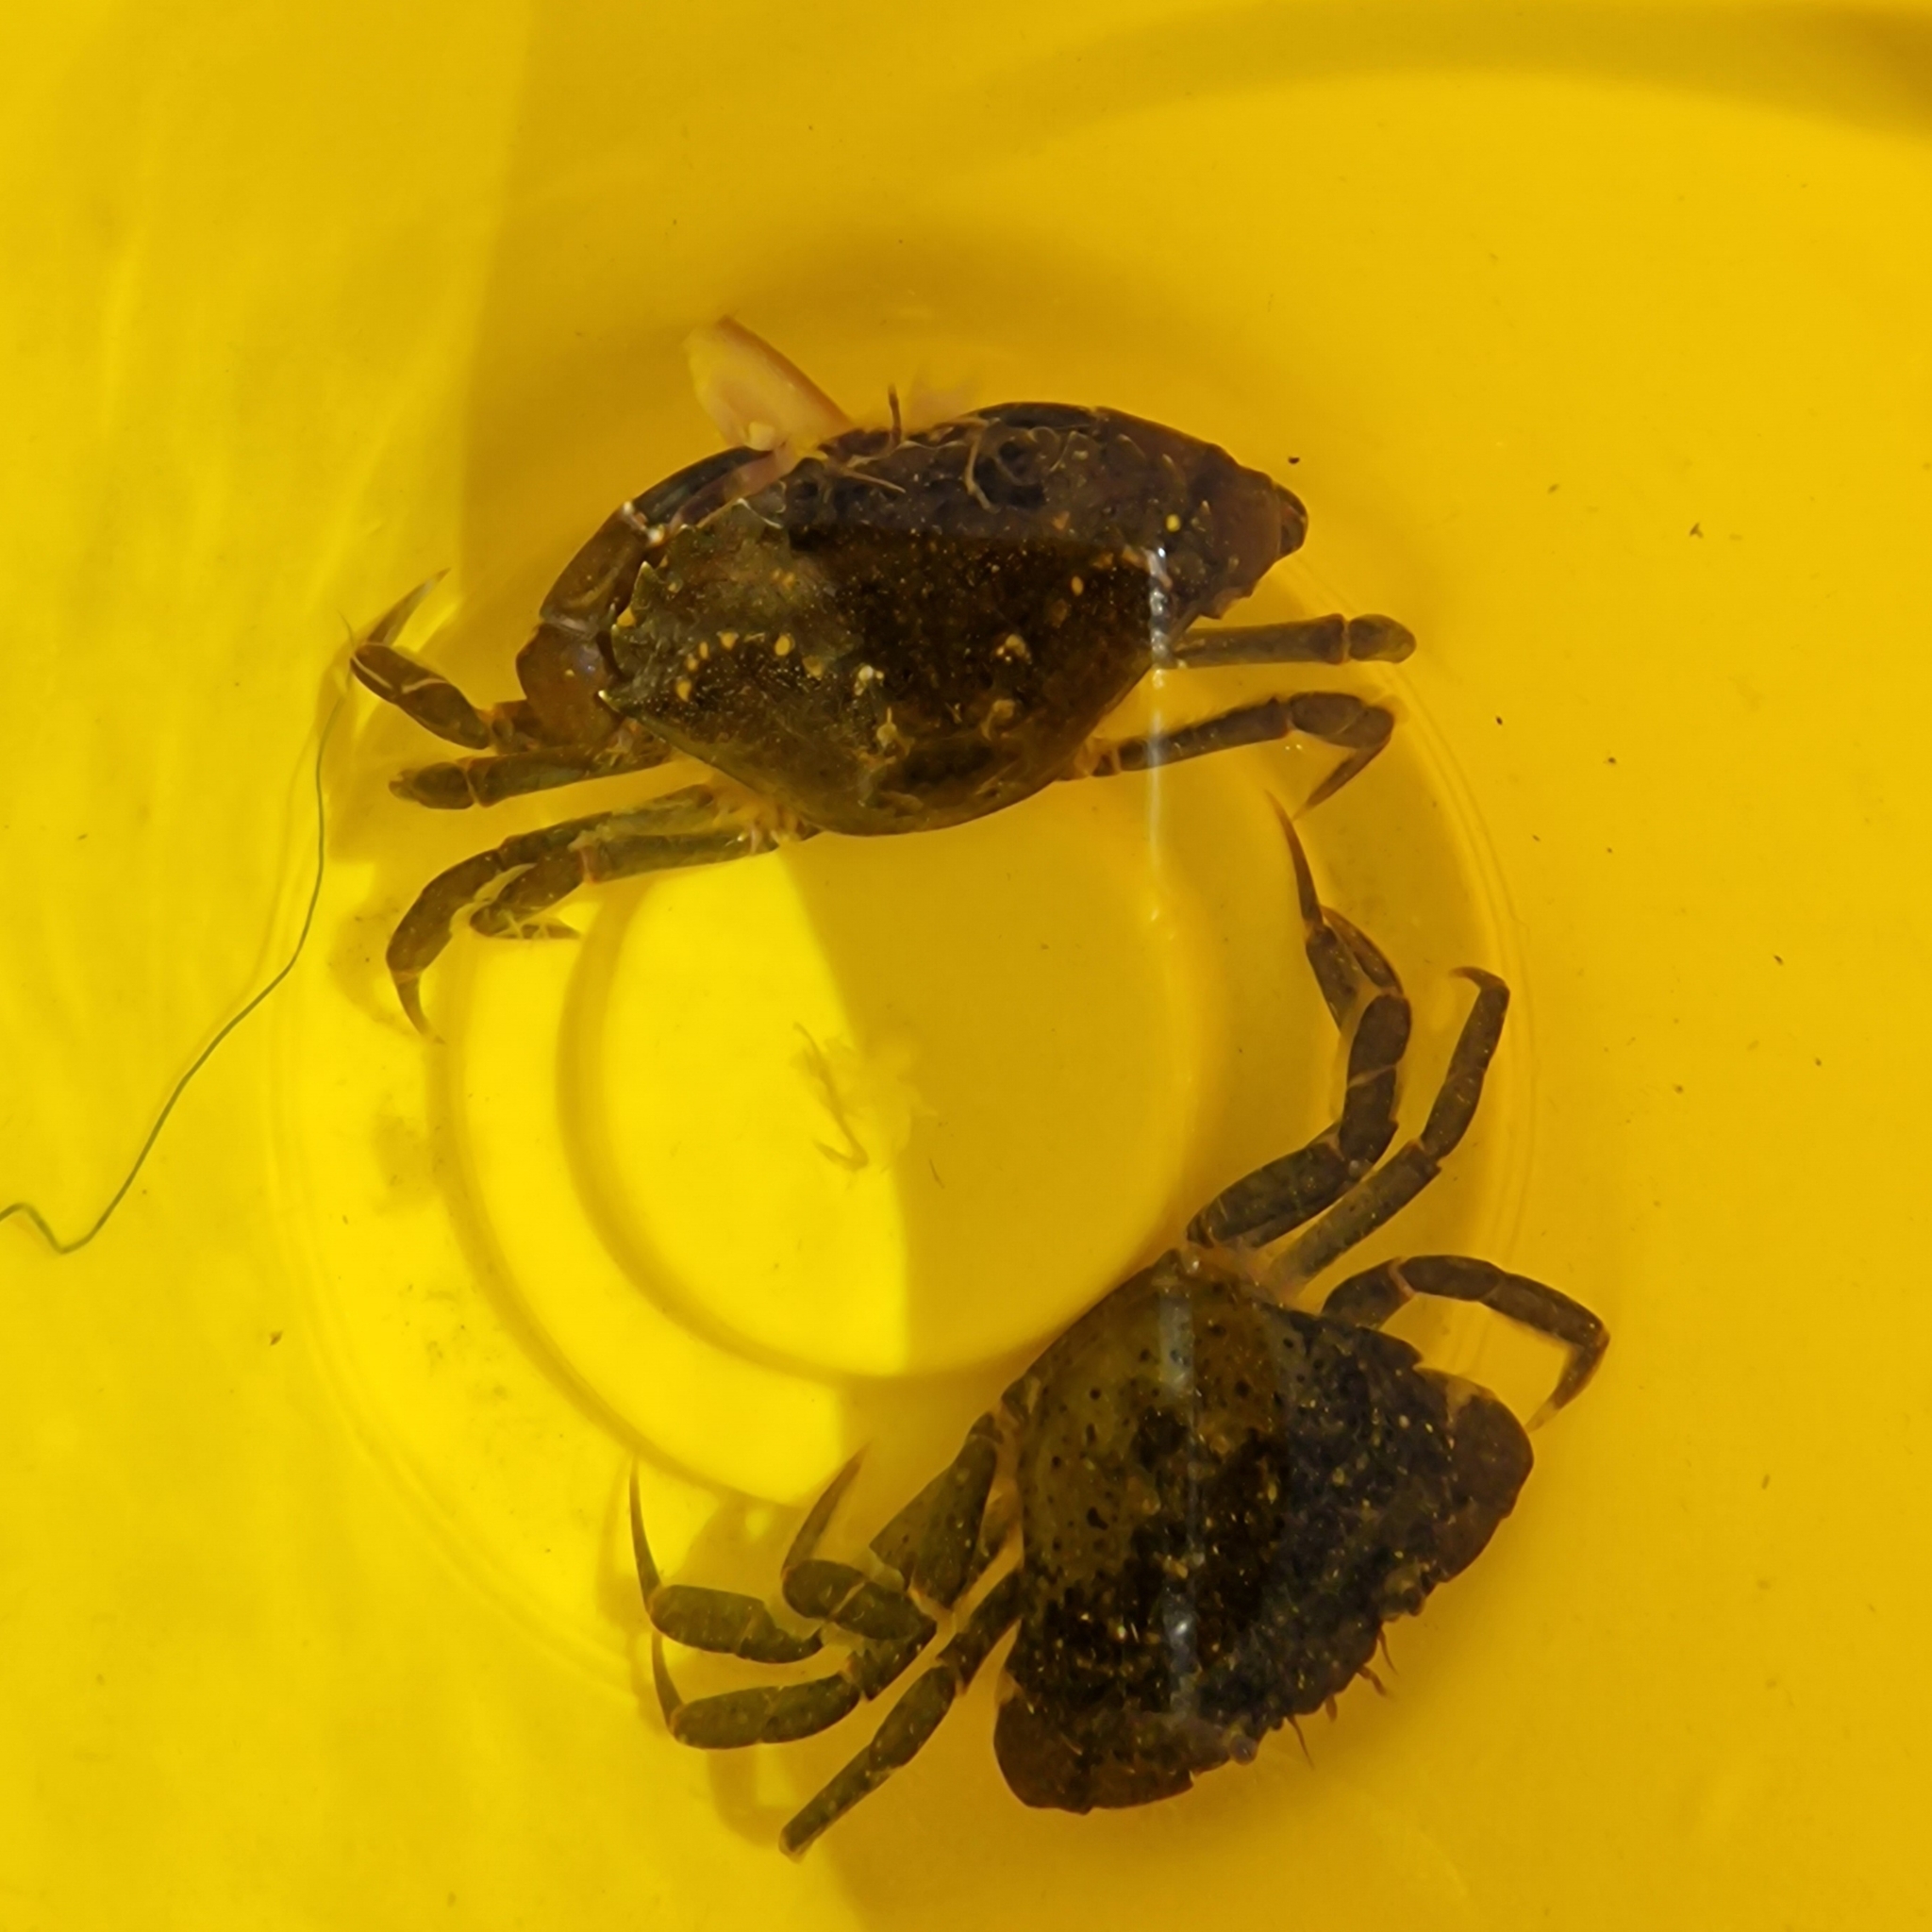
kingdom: Animalia
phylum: Arthropoda
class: Malacostraca
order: Decapoda
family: Carcinidae
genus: Carcinus
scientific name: Carcinus maenas
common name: European green crab
